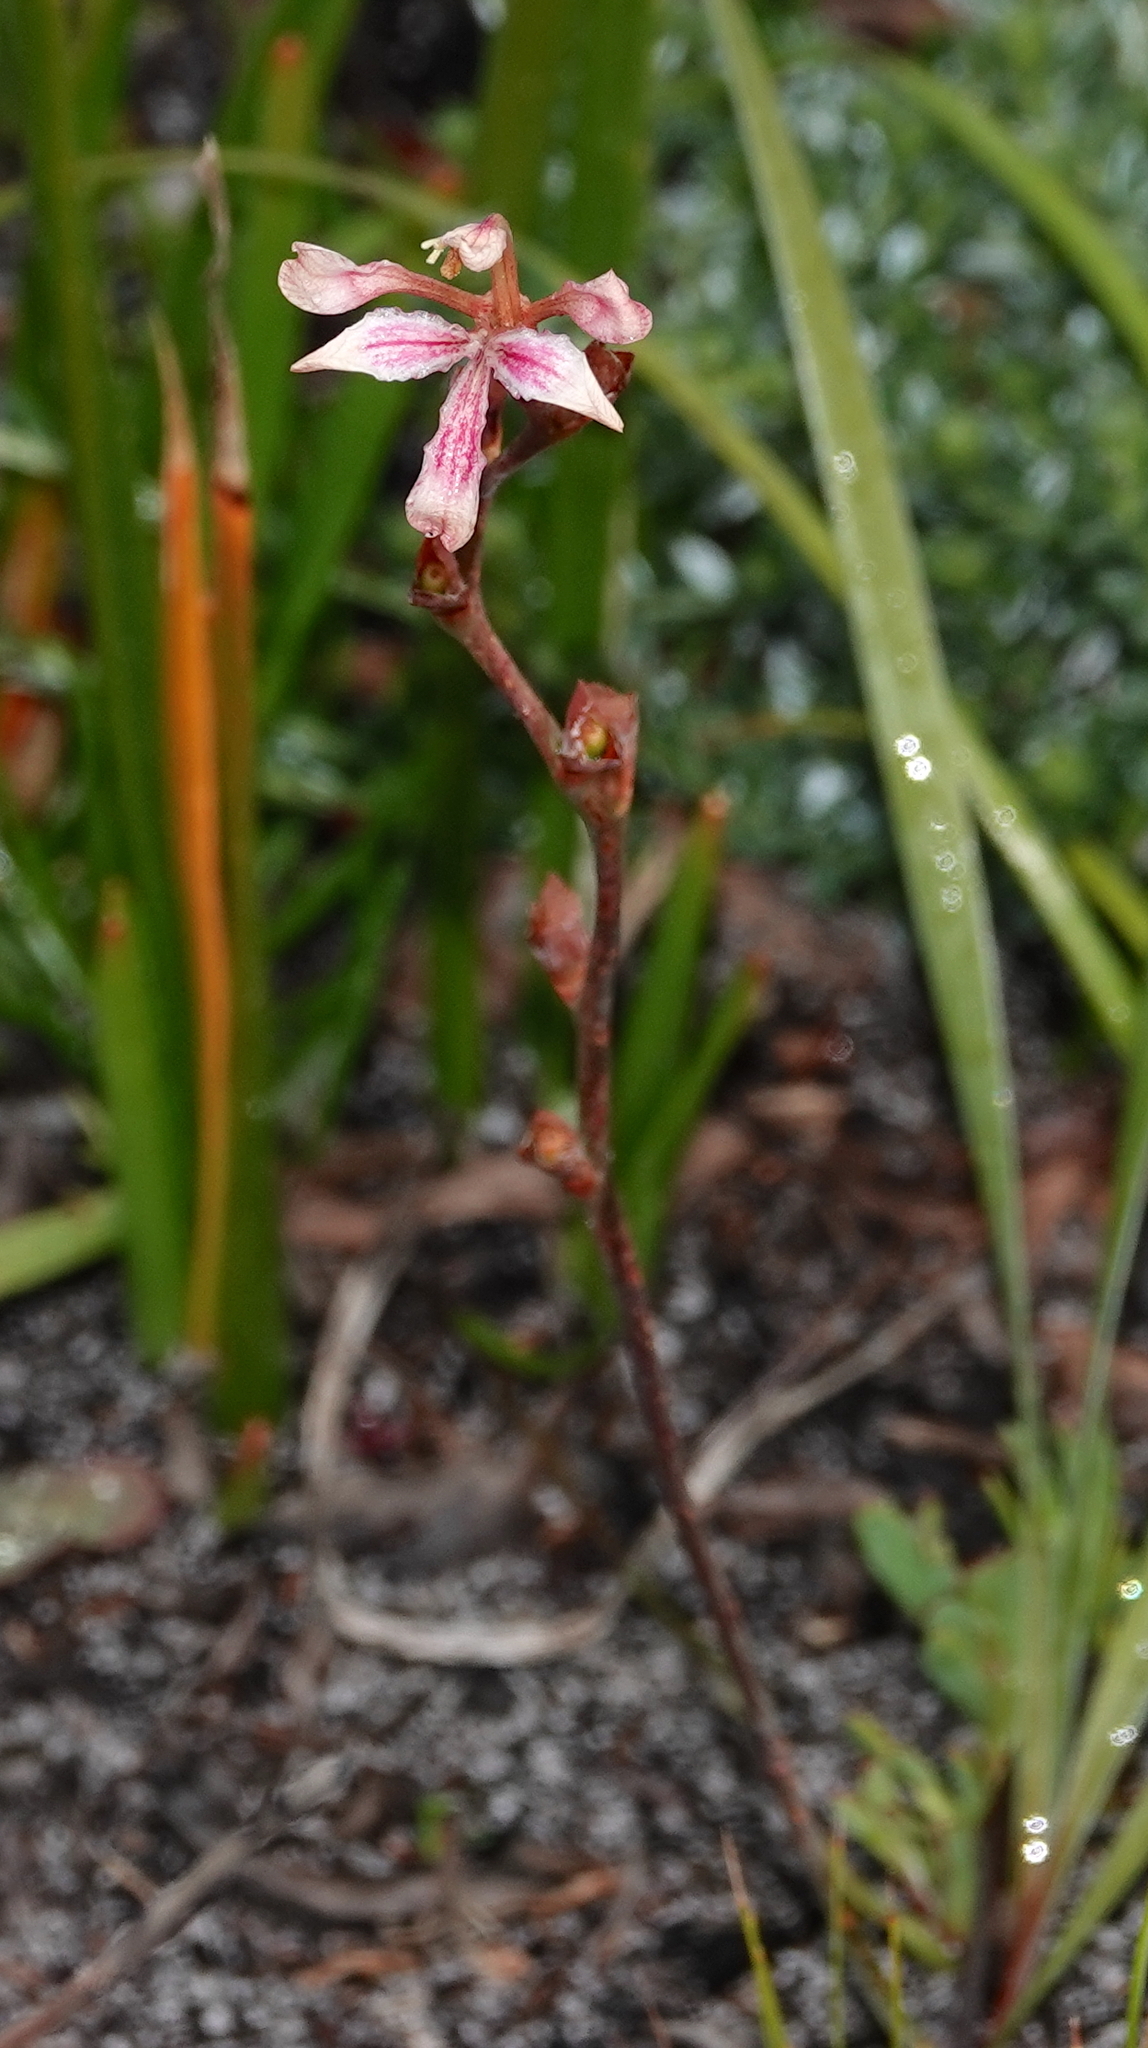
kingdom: Plantae
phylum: Tracheophyta
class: Liliopsida
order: Asparagales
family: Iridaceae
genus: Tritoniopsis
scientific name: Tritoniopsis dodii
